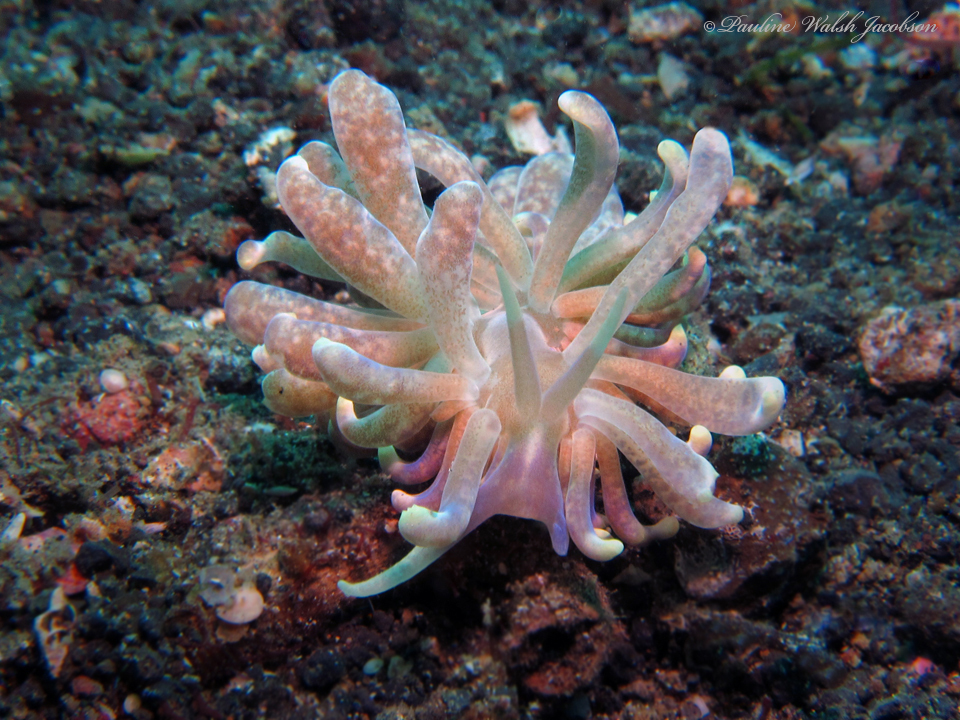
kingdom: Animalia
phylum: Mollusca
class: Gastropoda
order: Nudibranchia
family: Myrrhinidae
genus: Phyllodesmium
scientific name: Phyllodesmium magnum
